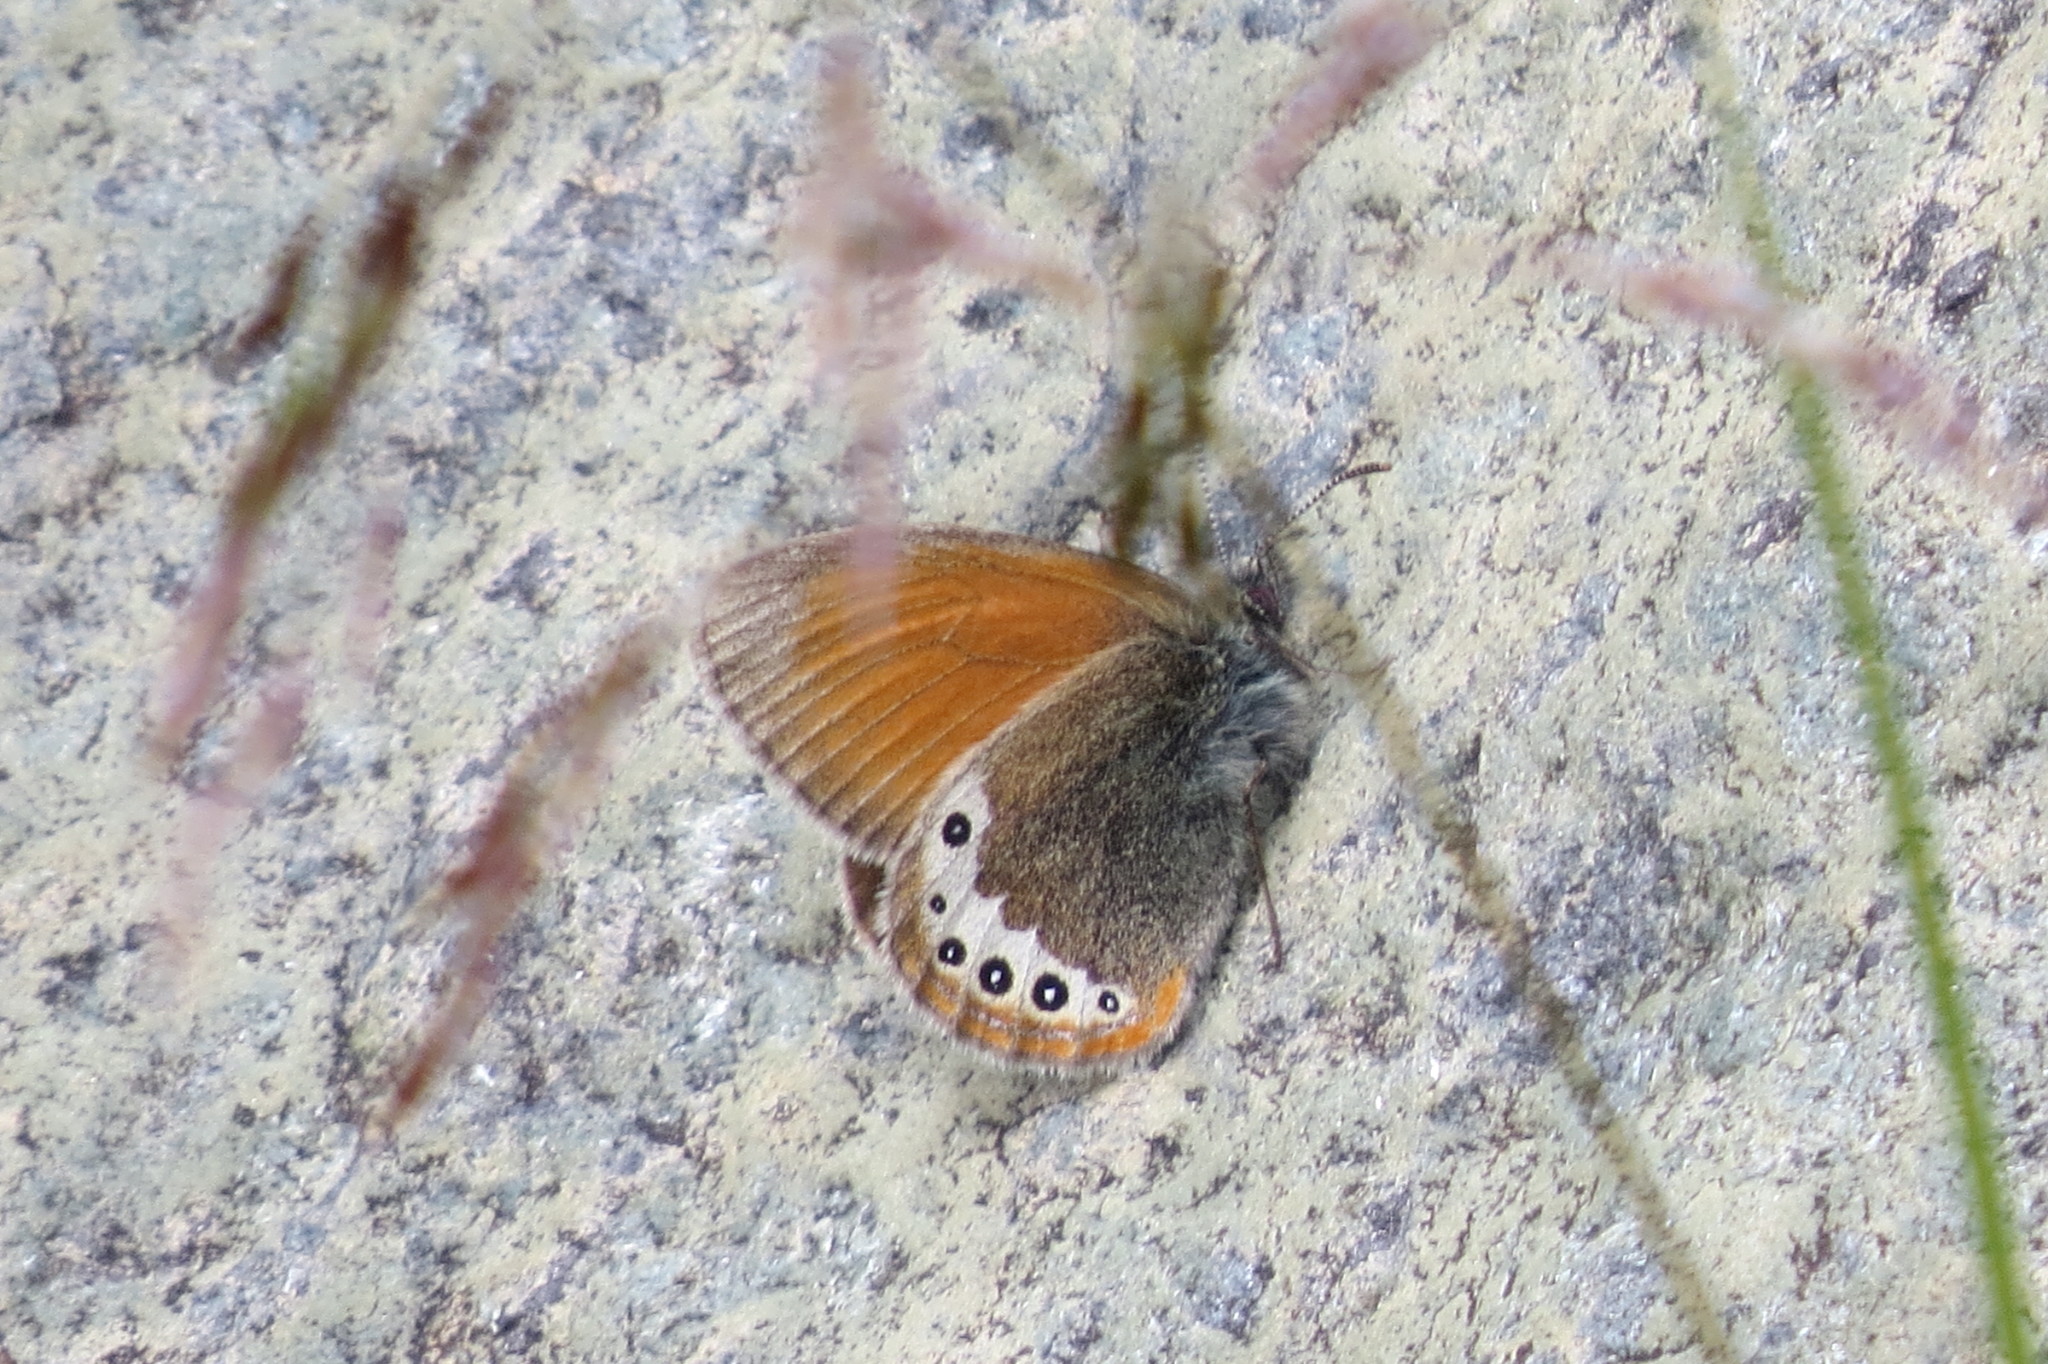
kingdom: Animalia
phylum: Arthropoda
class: Insecta
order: Lepidoptera
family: Nymphalidae
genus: Coenonympha
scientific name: Coenonympha
